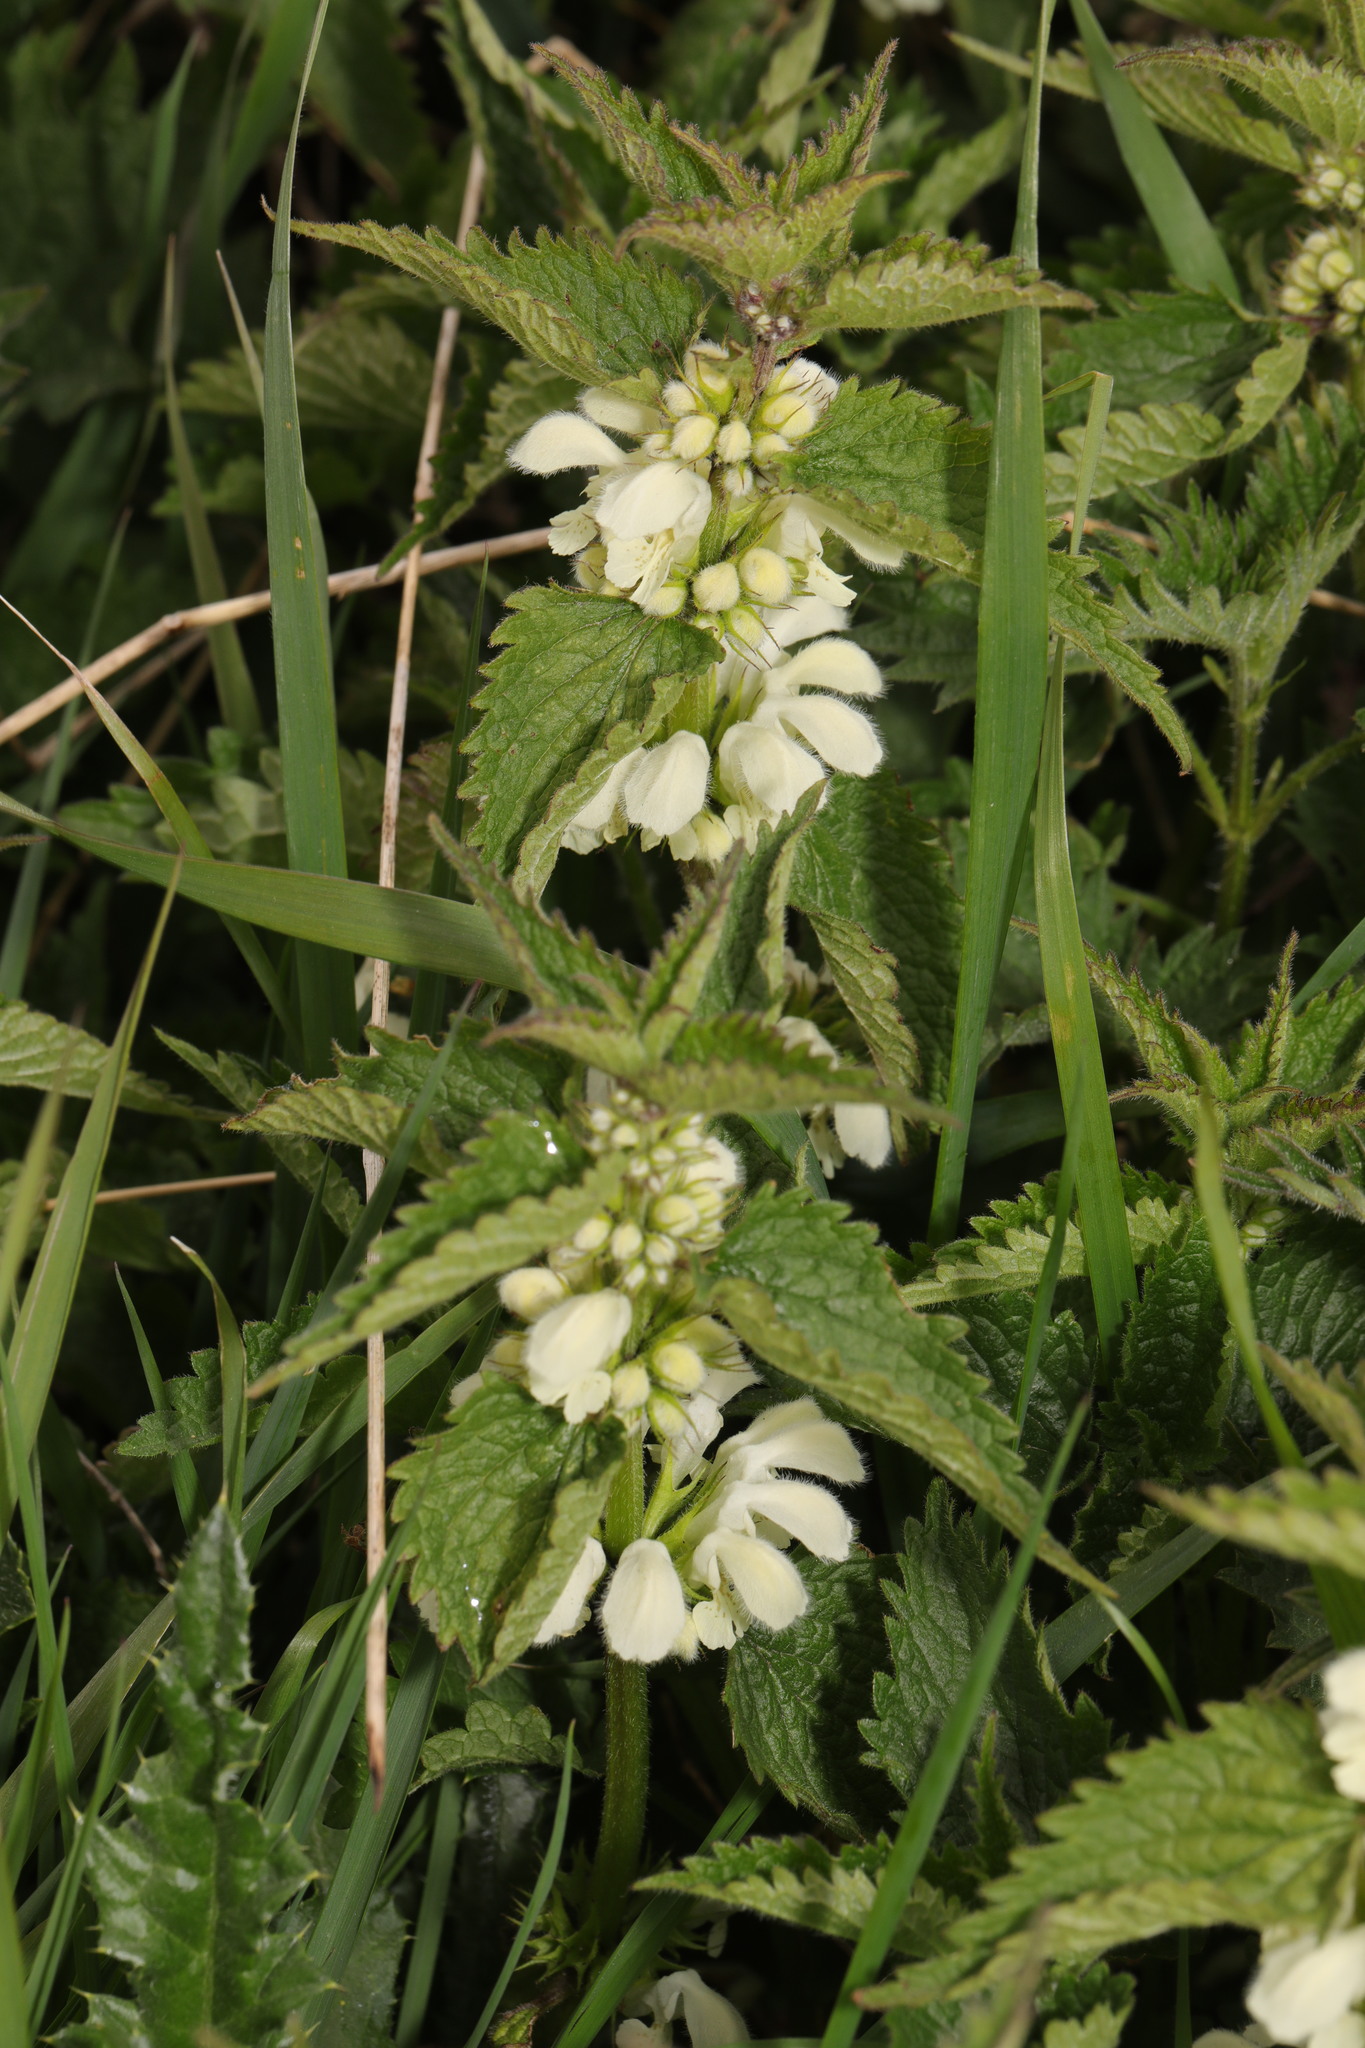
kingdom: Plantae
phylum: Tracheophyta
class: Magnoliopsida
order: Lamiales
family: Lamiaceae
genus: Lamium
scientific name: Lamium album
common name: White dead-nettle
